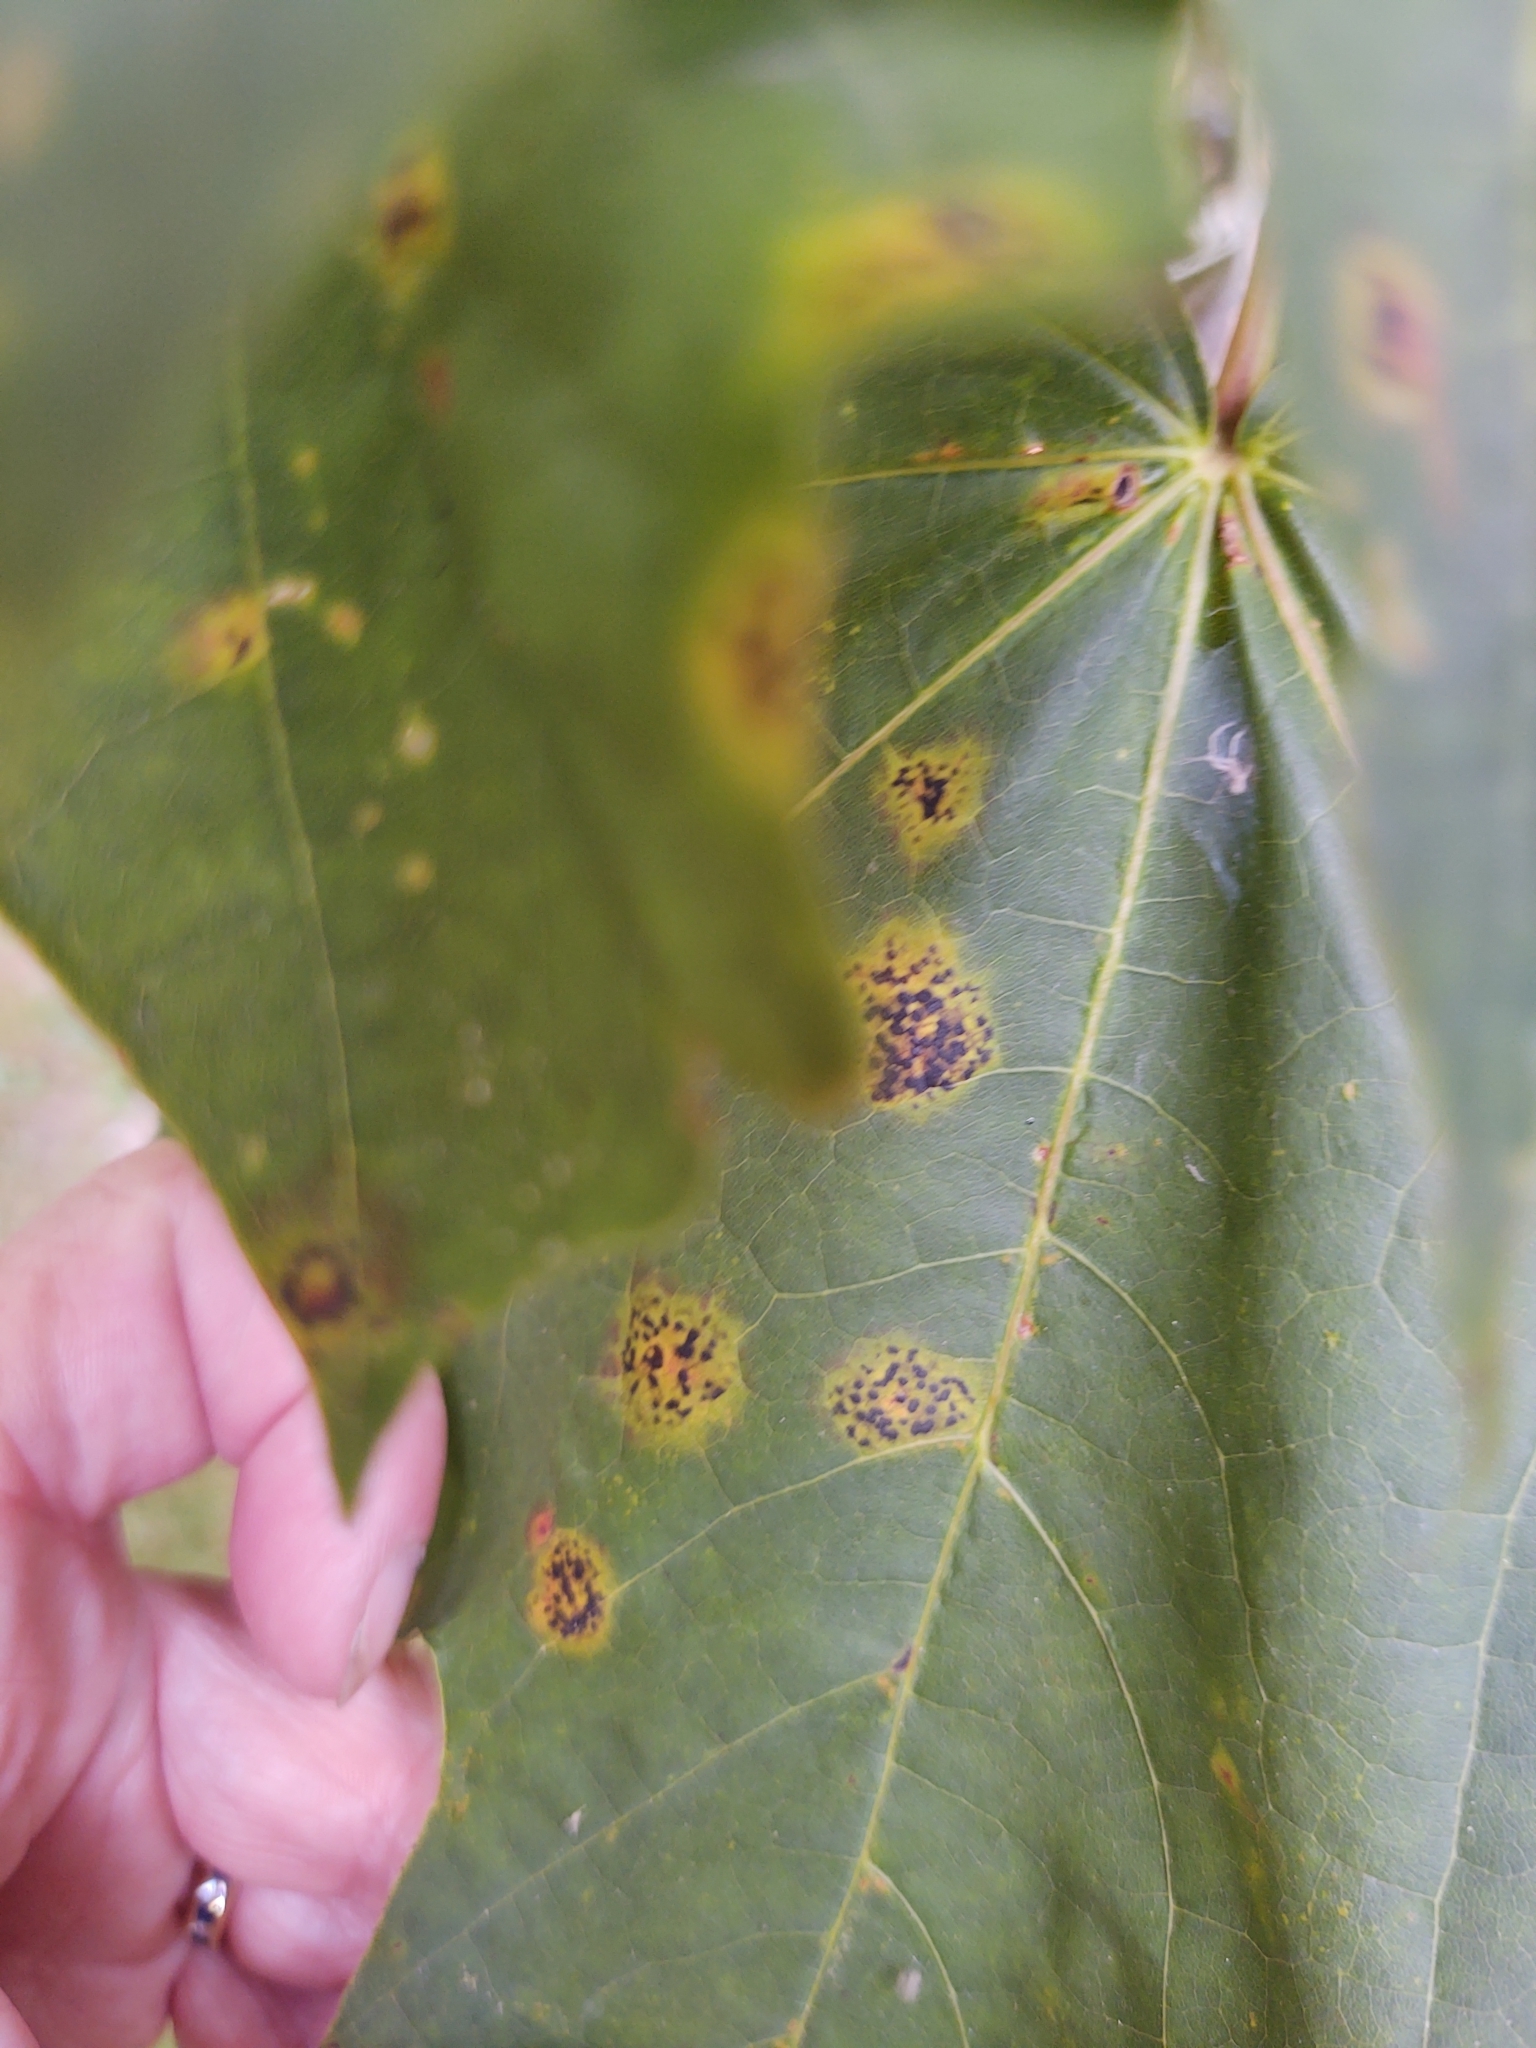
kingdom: Fungi
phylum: Ascomycota
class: Leotiomycetes
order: Rhytismatales
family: Rhytismataceae
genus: Rhytisma
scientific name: Rhytisma acerinum
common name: European tar spot
